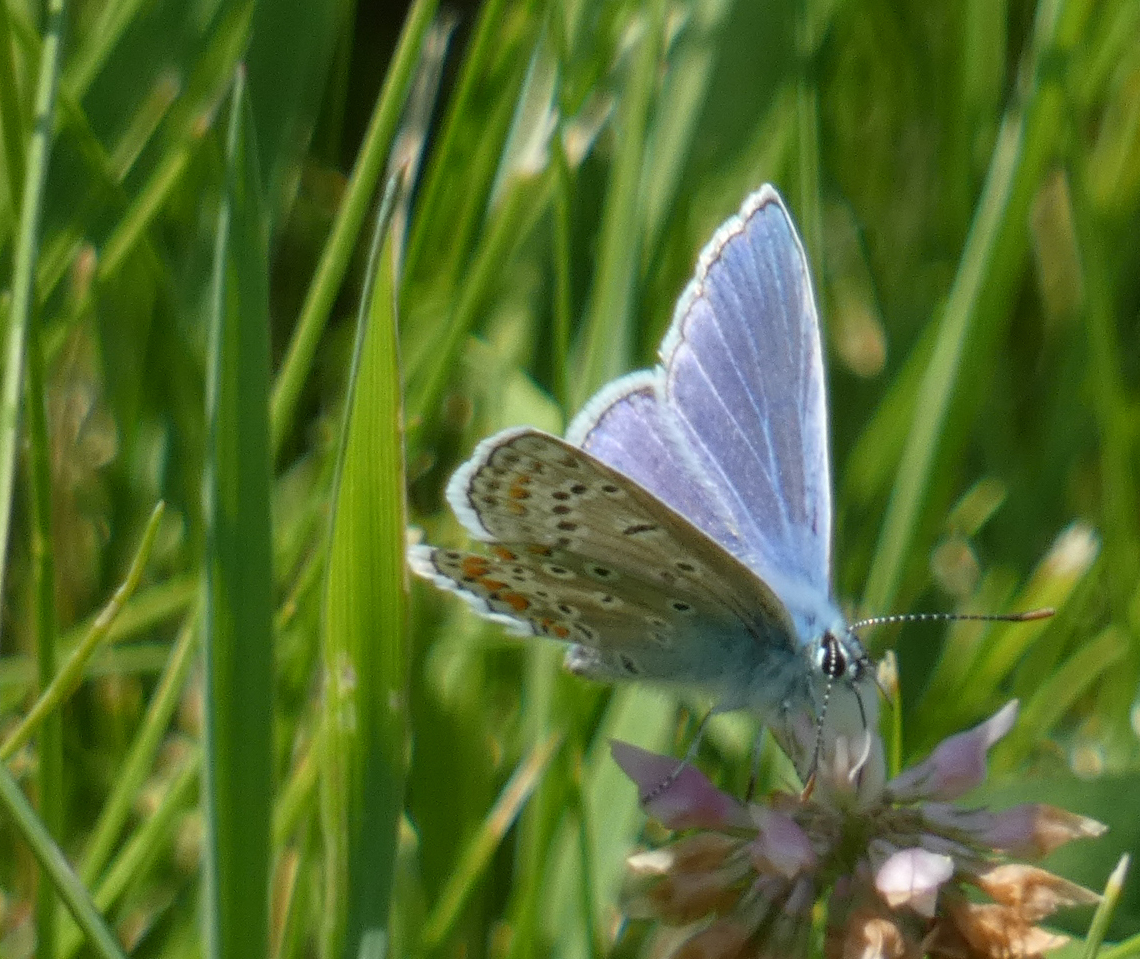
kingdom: Animalia
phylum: Arthropoda
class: Insecta
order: Lepidoptera
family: Lycaenidae
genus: Polyommatus
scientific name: Polyommatus icarus
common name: Common blue
